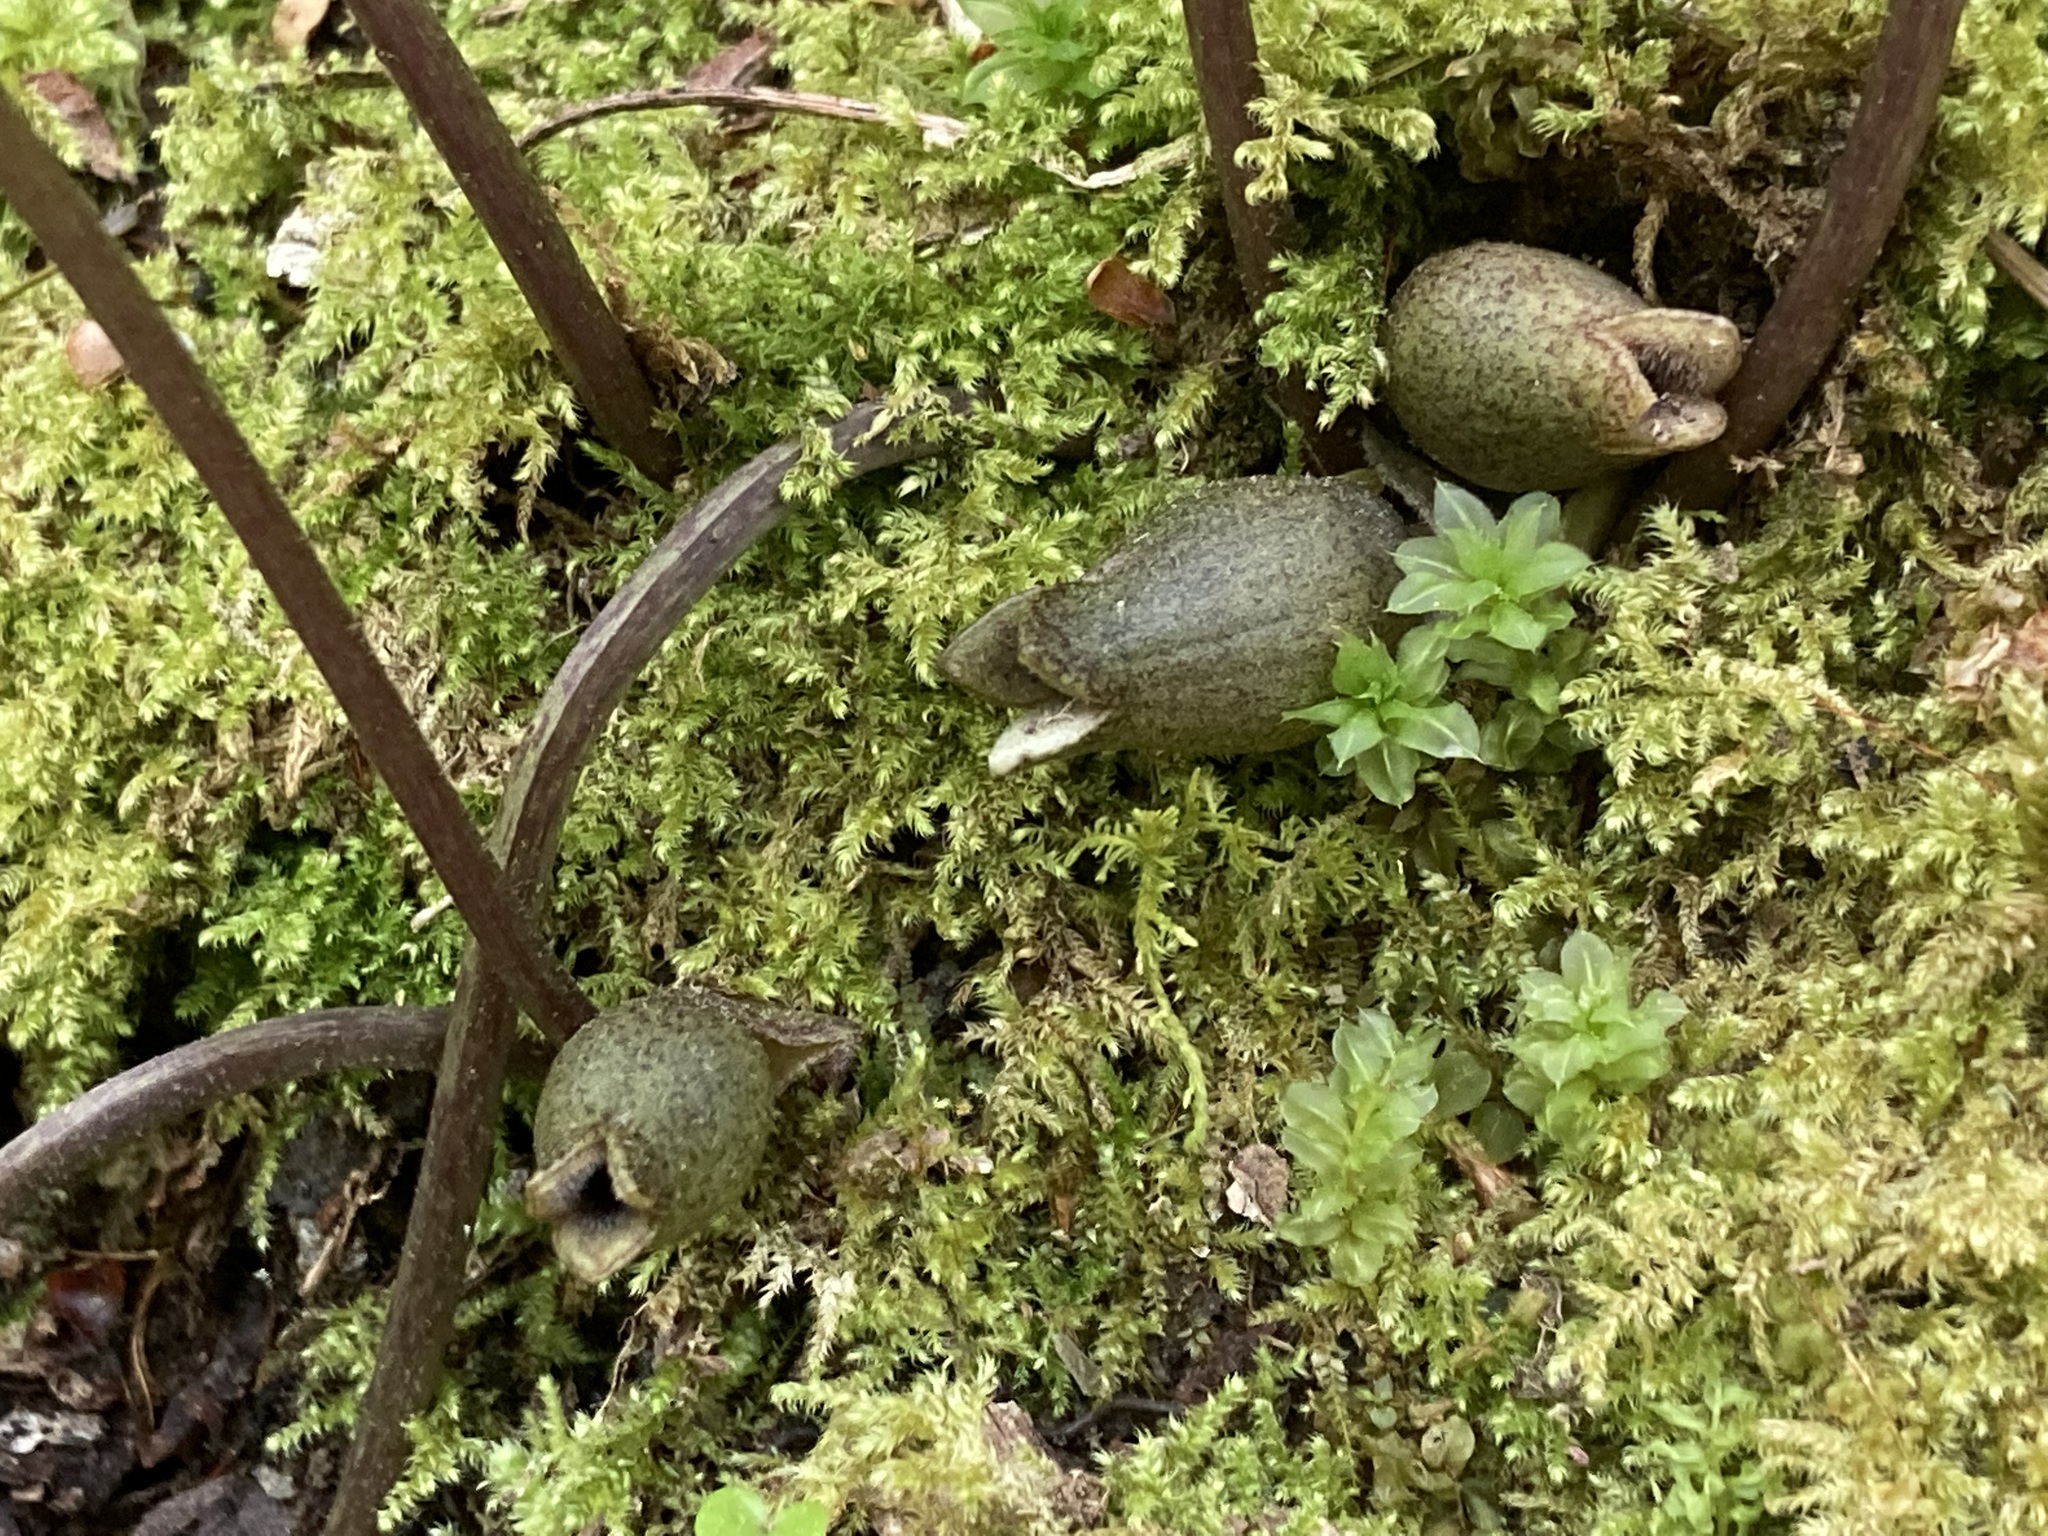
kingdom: Plantae
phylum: Tracheophyta
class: Magnoliopsida
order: Piperales
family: Aristolochiaceae
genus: Hexastylis
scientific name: Hexastylis arifolia
